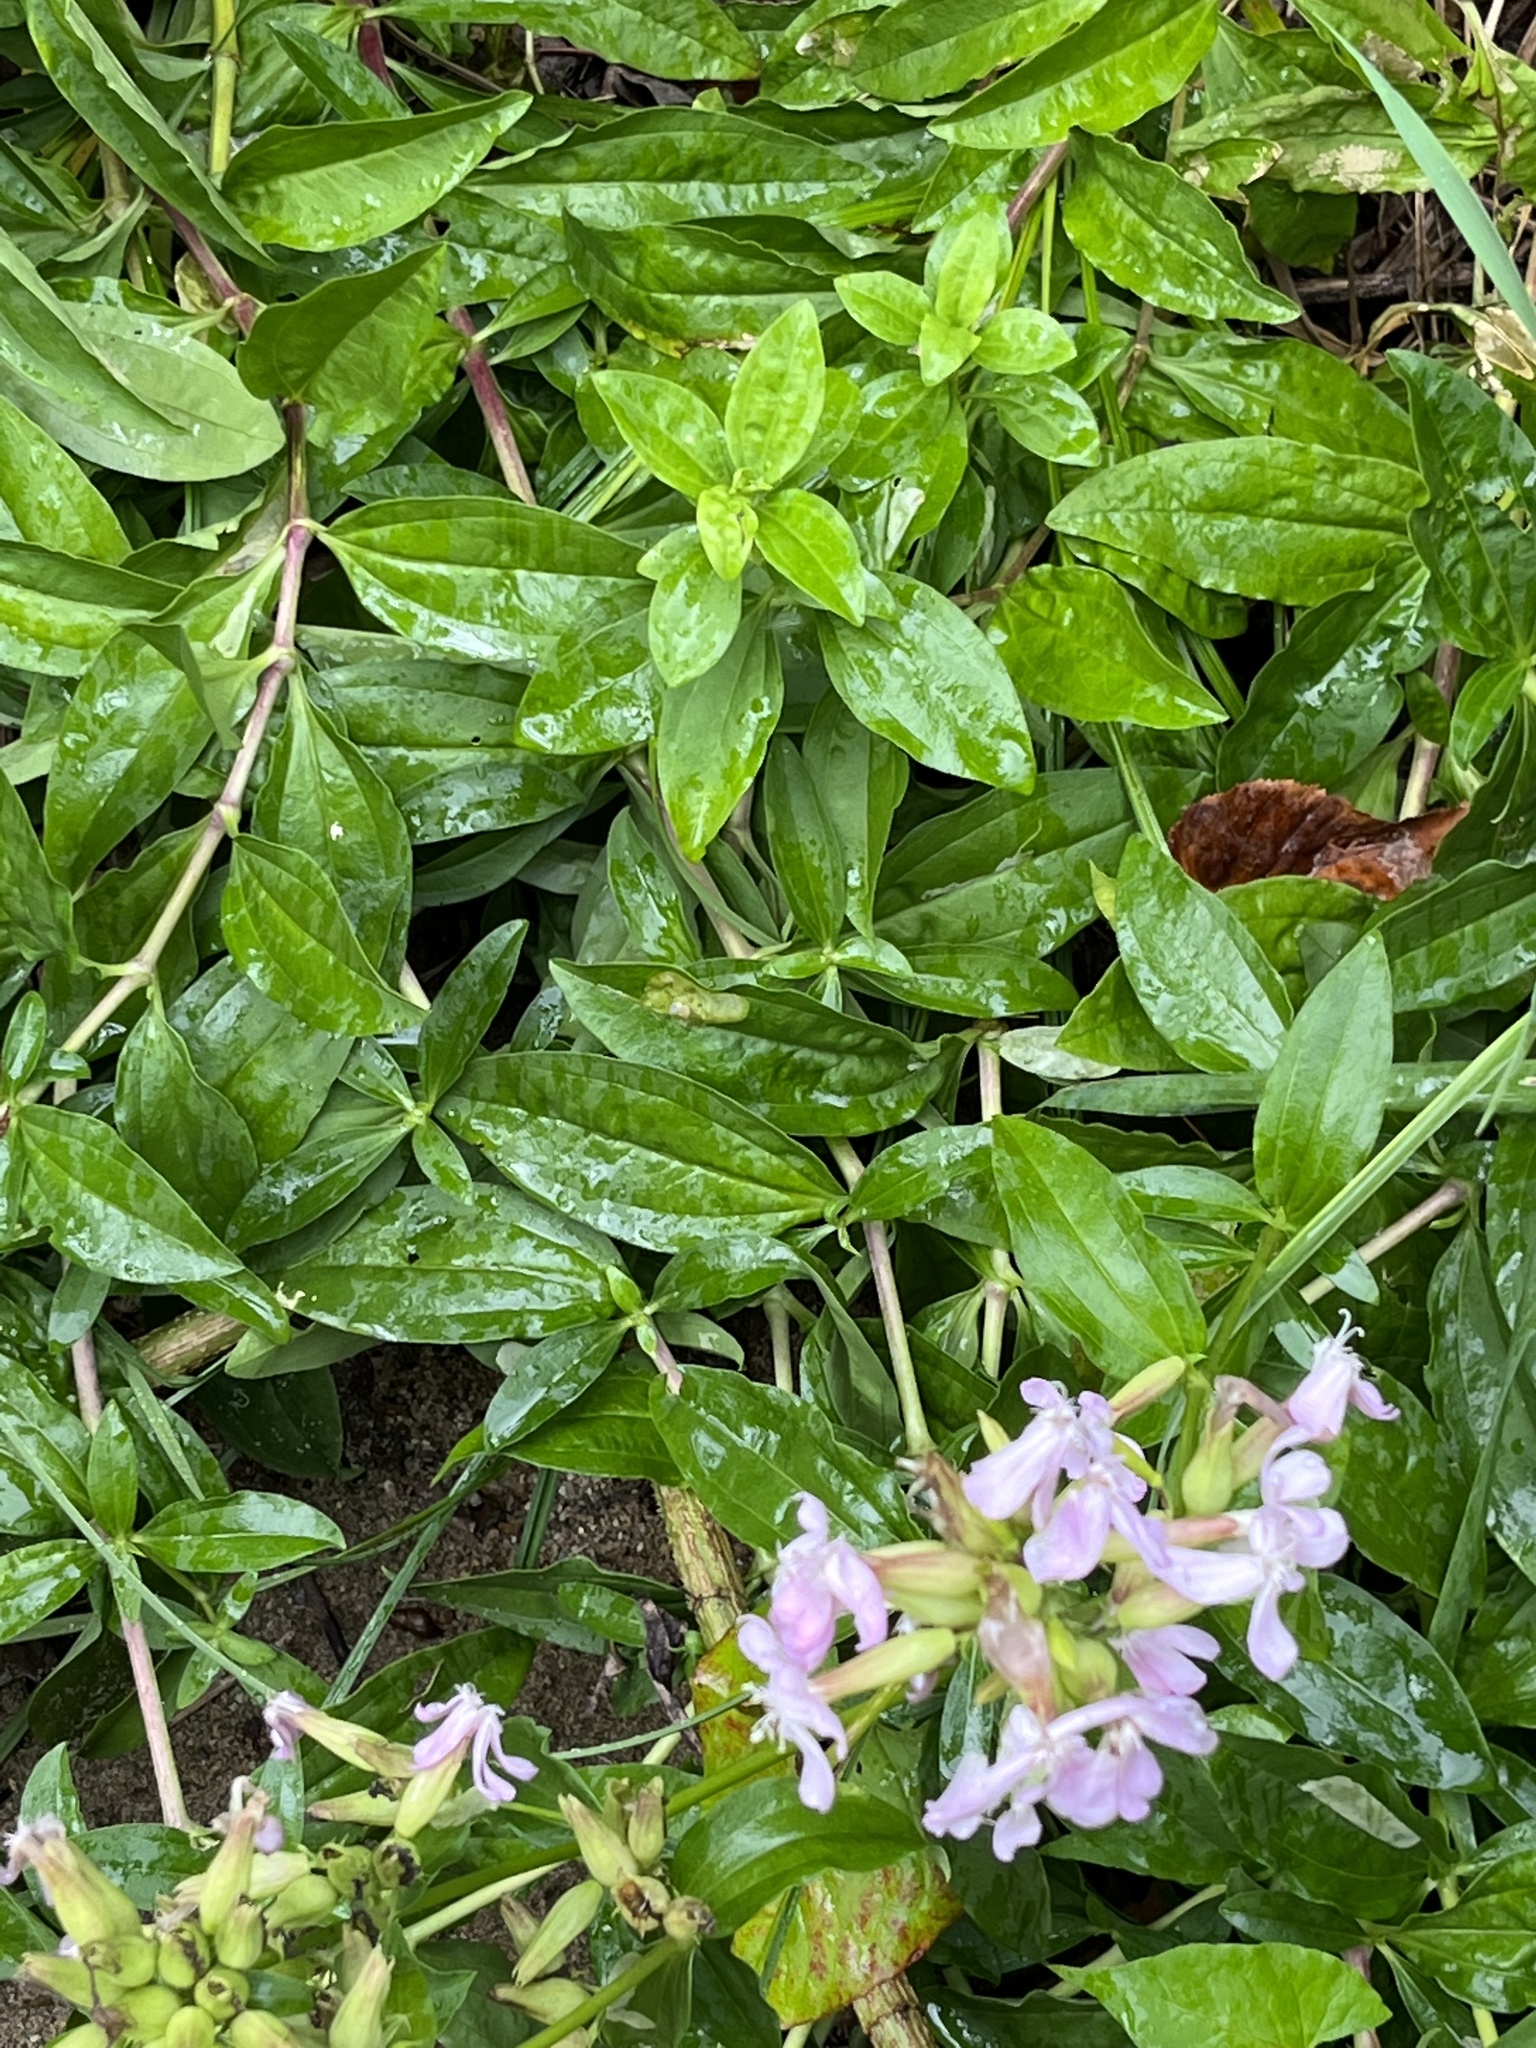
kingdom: Plantae
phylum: Tracheophyta
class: Magnoliopsida
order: Caryophyllales
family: Caryophyllaceae
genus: Saponaria
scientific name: Saponaria officinalis
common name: Soapwort
